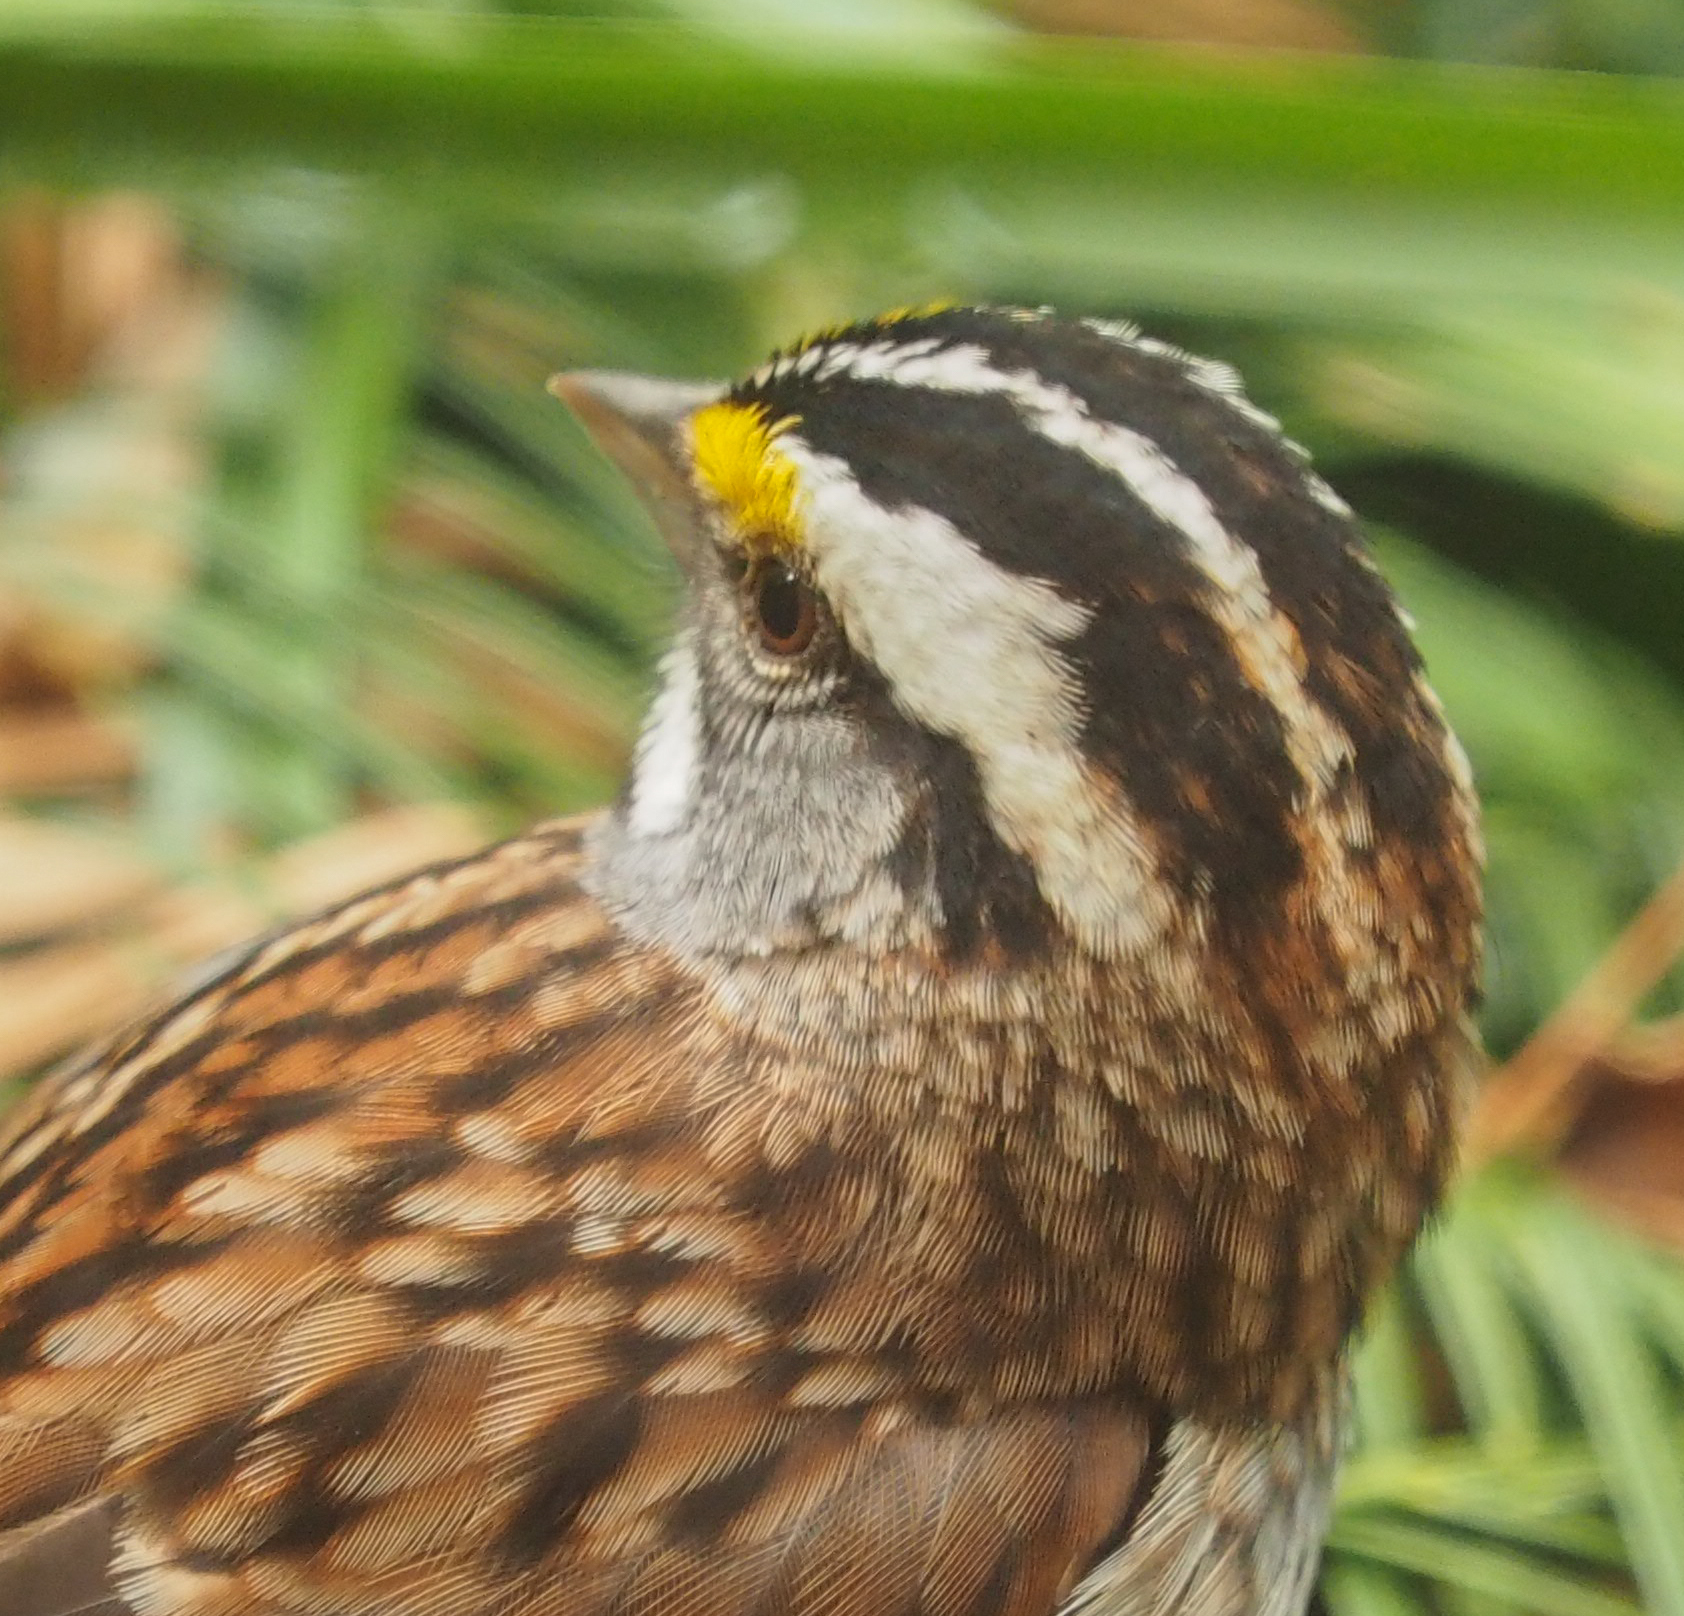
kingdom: Animalia
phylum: Chordata
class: Aves
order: Passeriformes
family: Passerellidae
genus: Zonotrichia
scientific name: Zonotrichia albicollis
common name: White-throated sparrow
